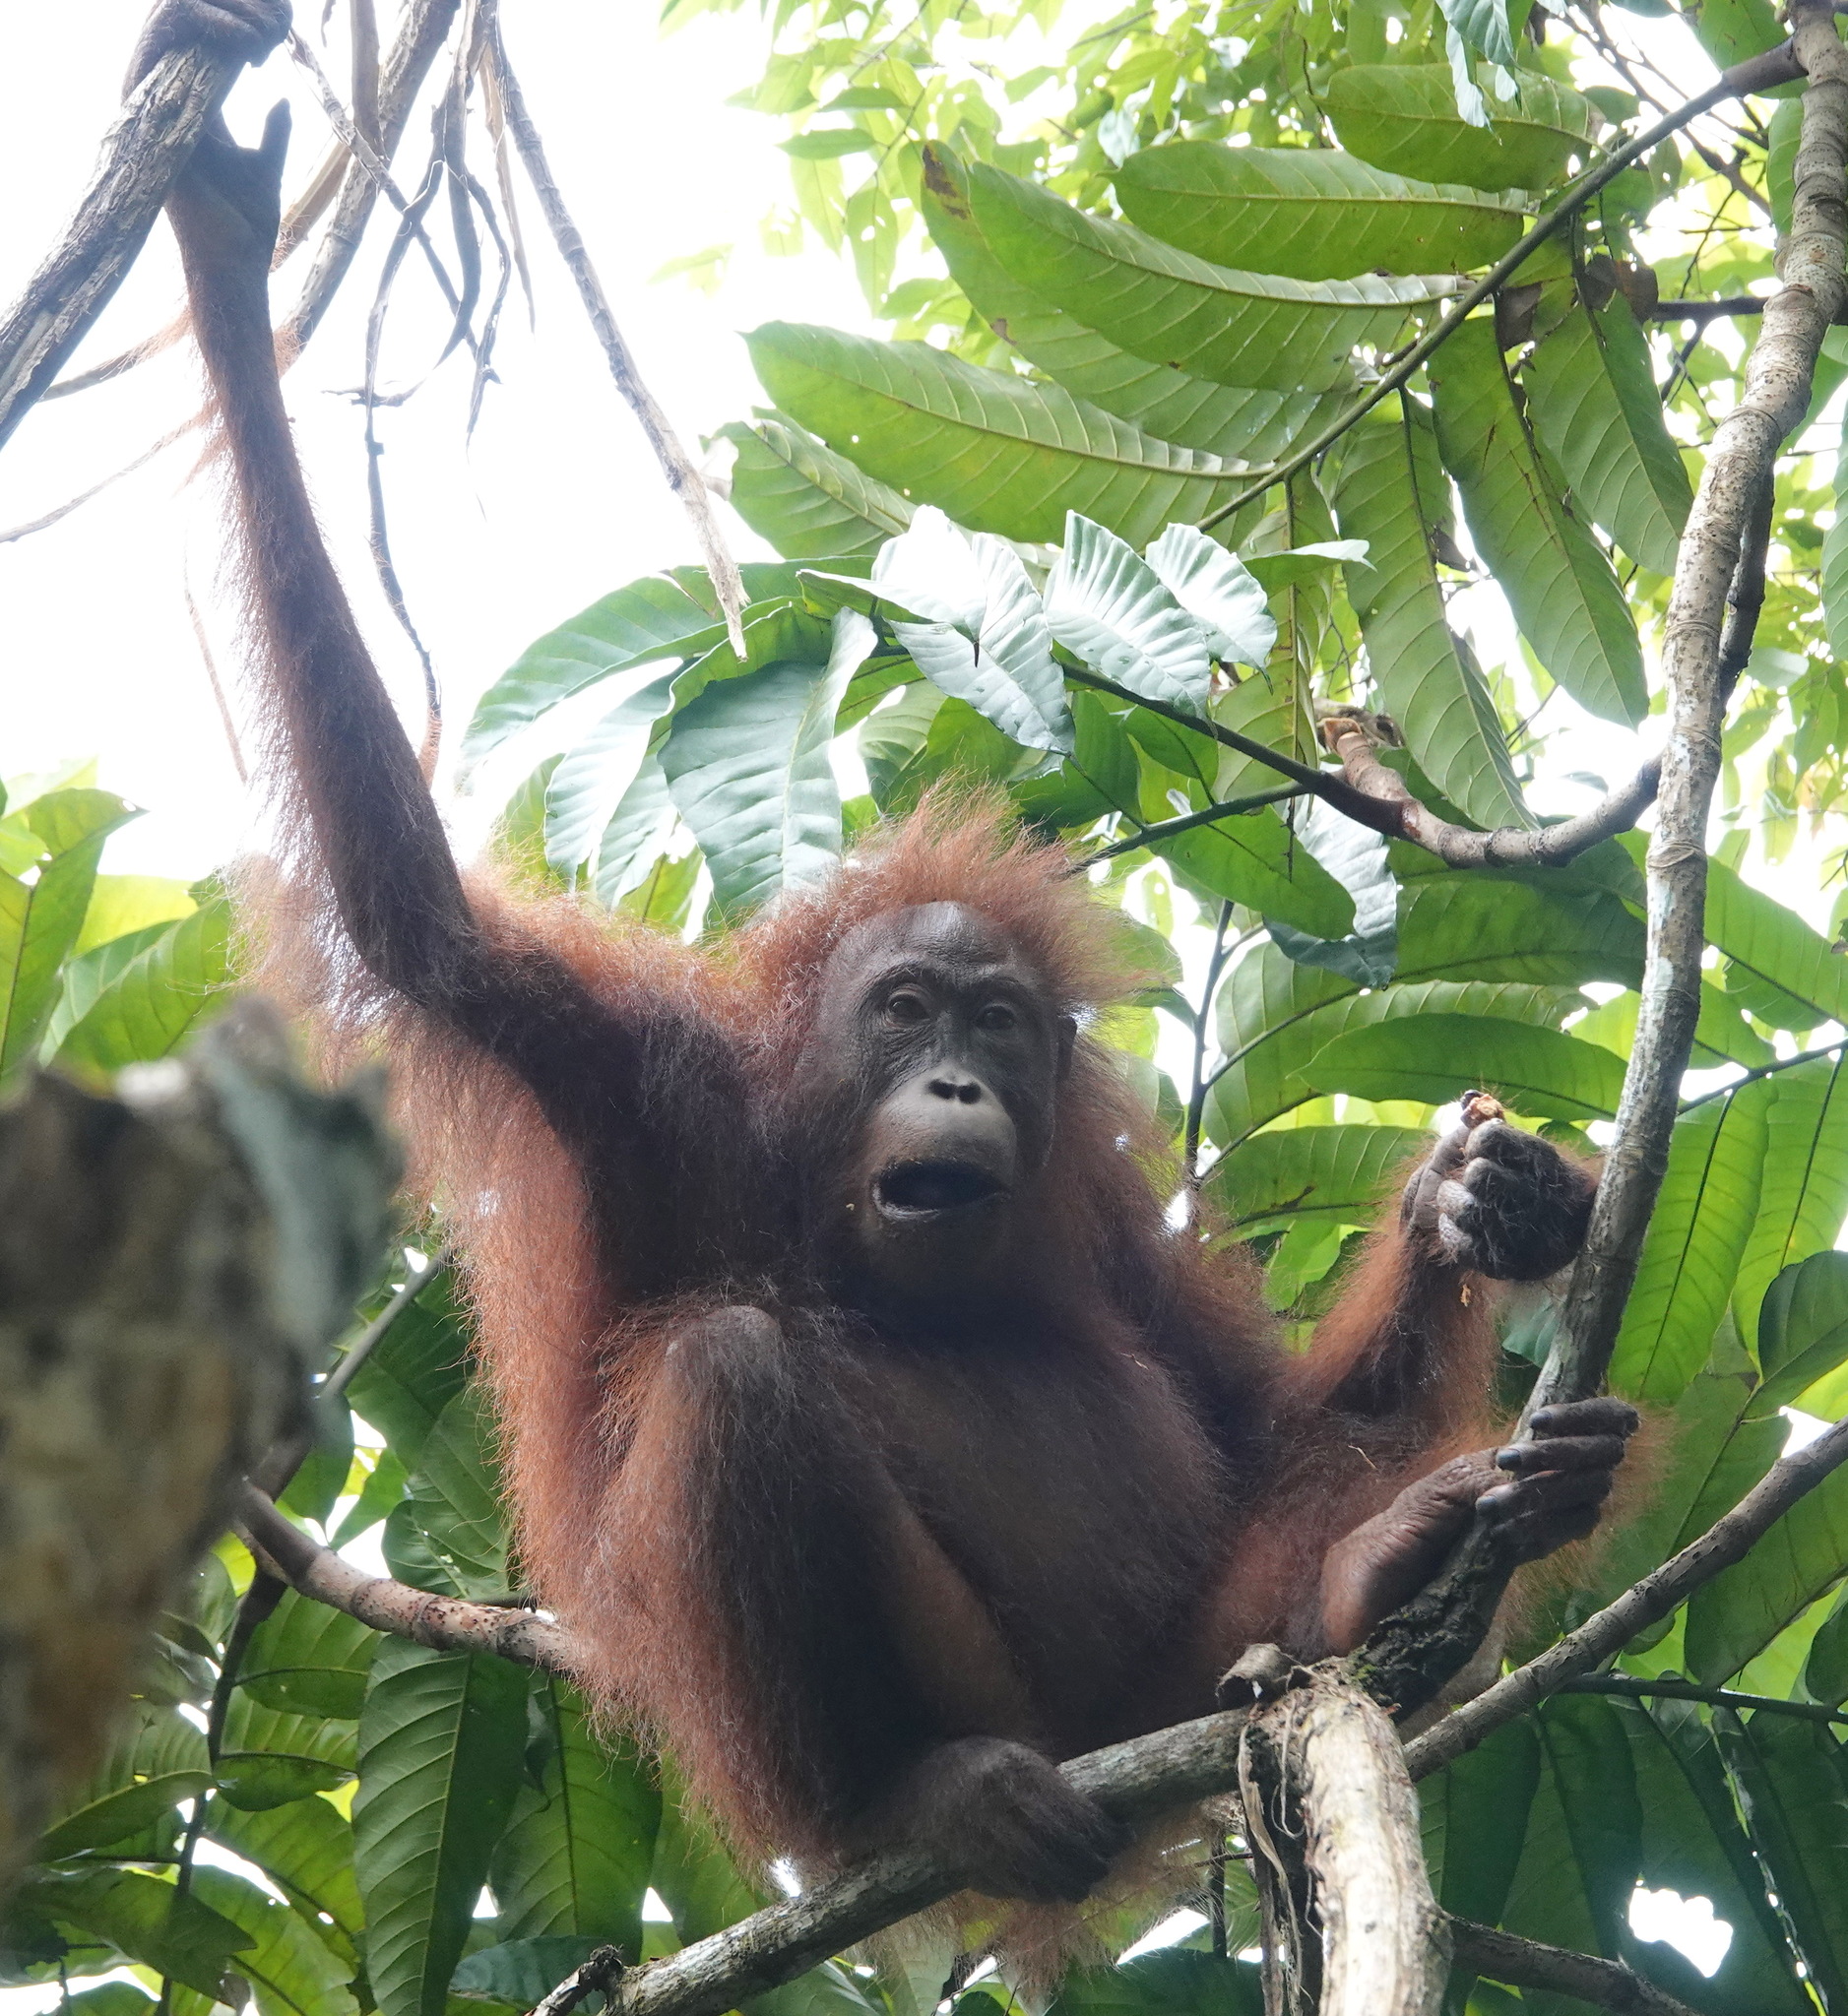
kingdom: Animalia
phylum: Chordata
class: Mammalia
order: Primates
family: Hominidae
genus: Pongo
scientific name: Pongo pygmaeus
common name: Bornean orangutan
